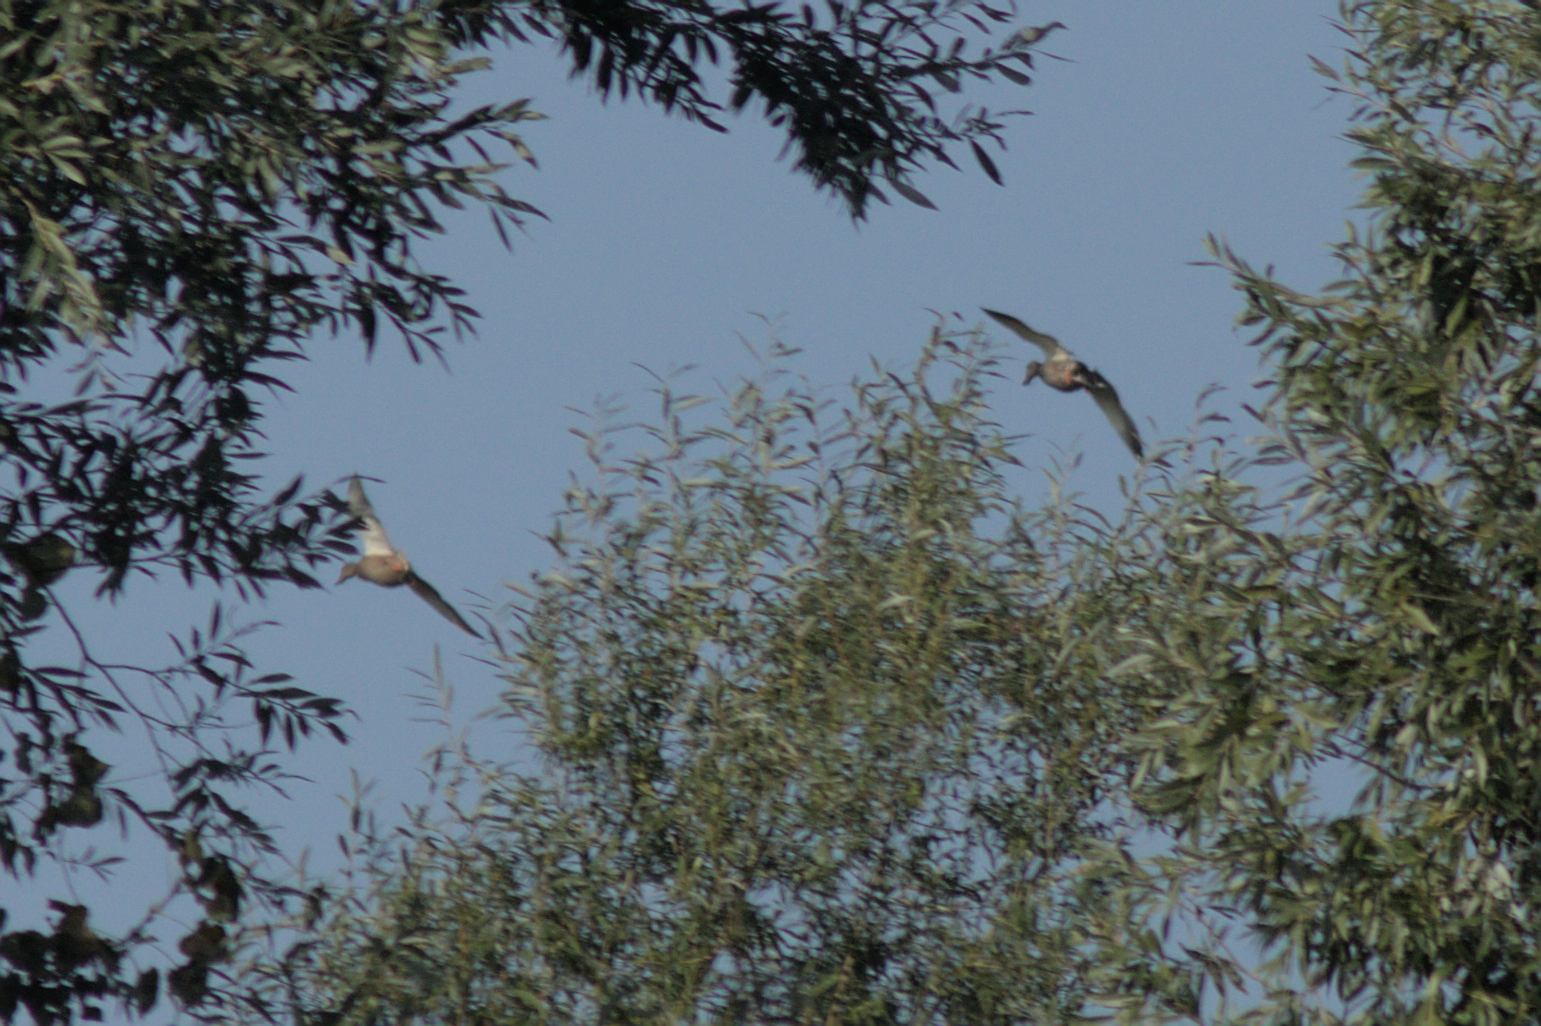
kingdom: Animalia
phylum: Chordata
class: Aves
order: Anseriformes
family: Anatidae
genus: Anas
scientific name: Anas platyrhynchos
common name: Mallard
